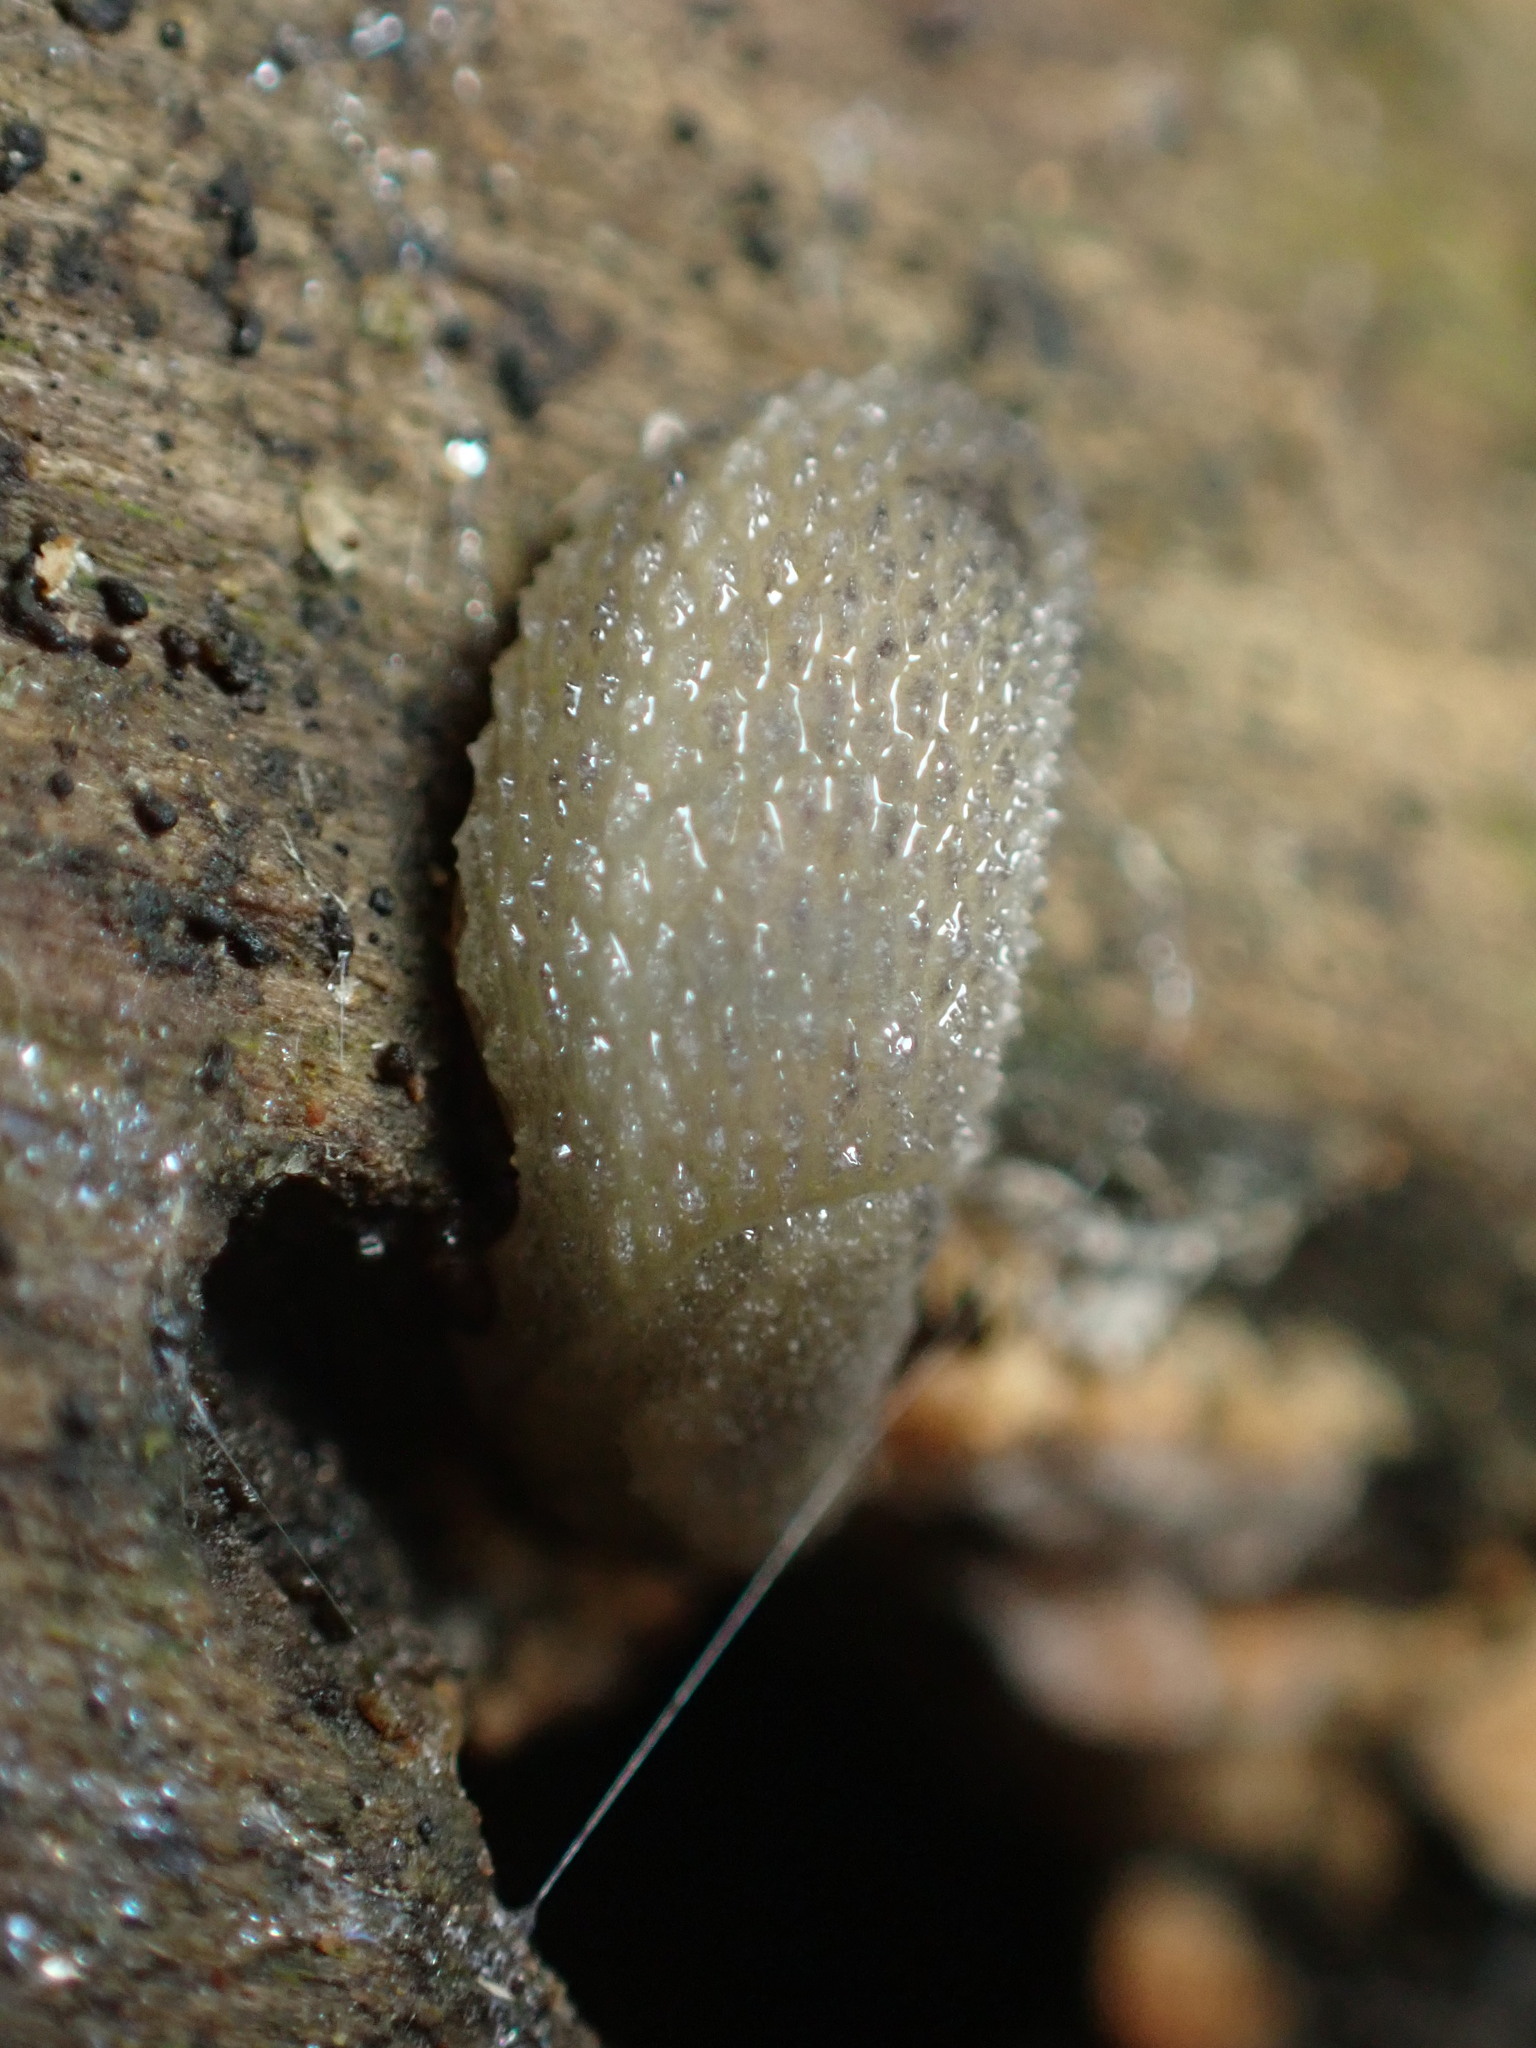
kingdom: Animalia
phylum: Mollusca
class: Gastropoda
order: Stylommatophora
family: Arionidae
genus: Arion
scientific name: Arion intermedius
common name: Hedgehog slug
